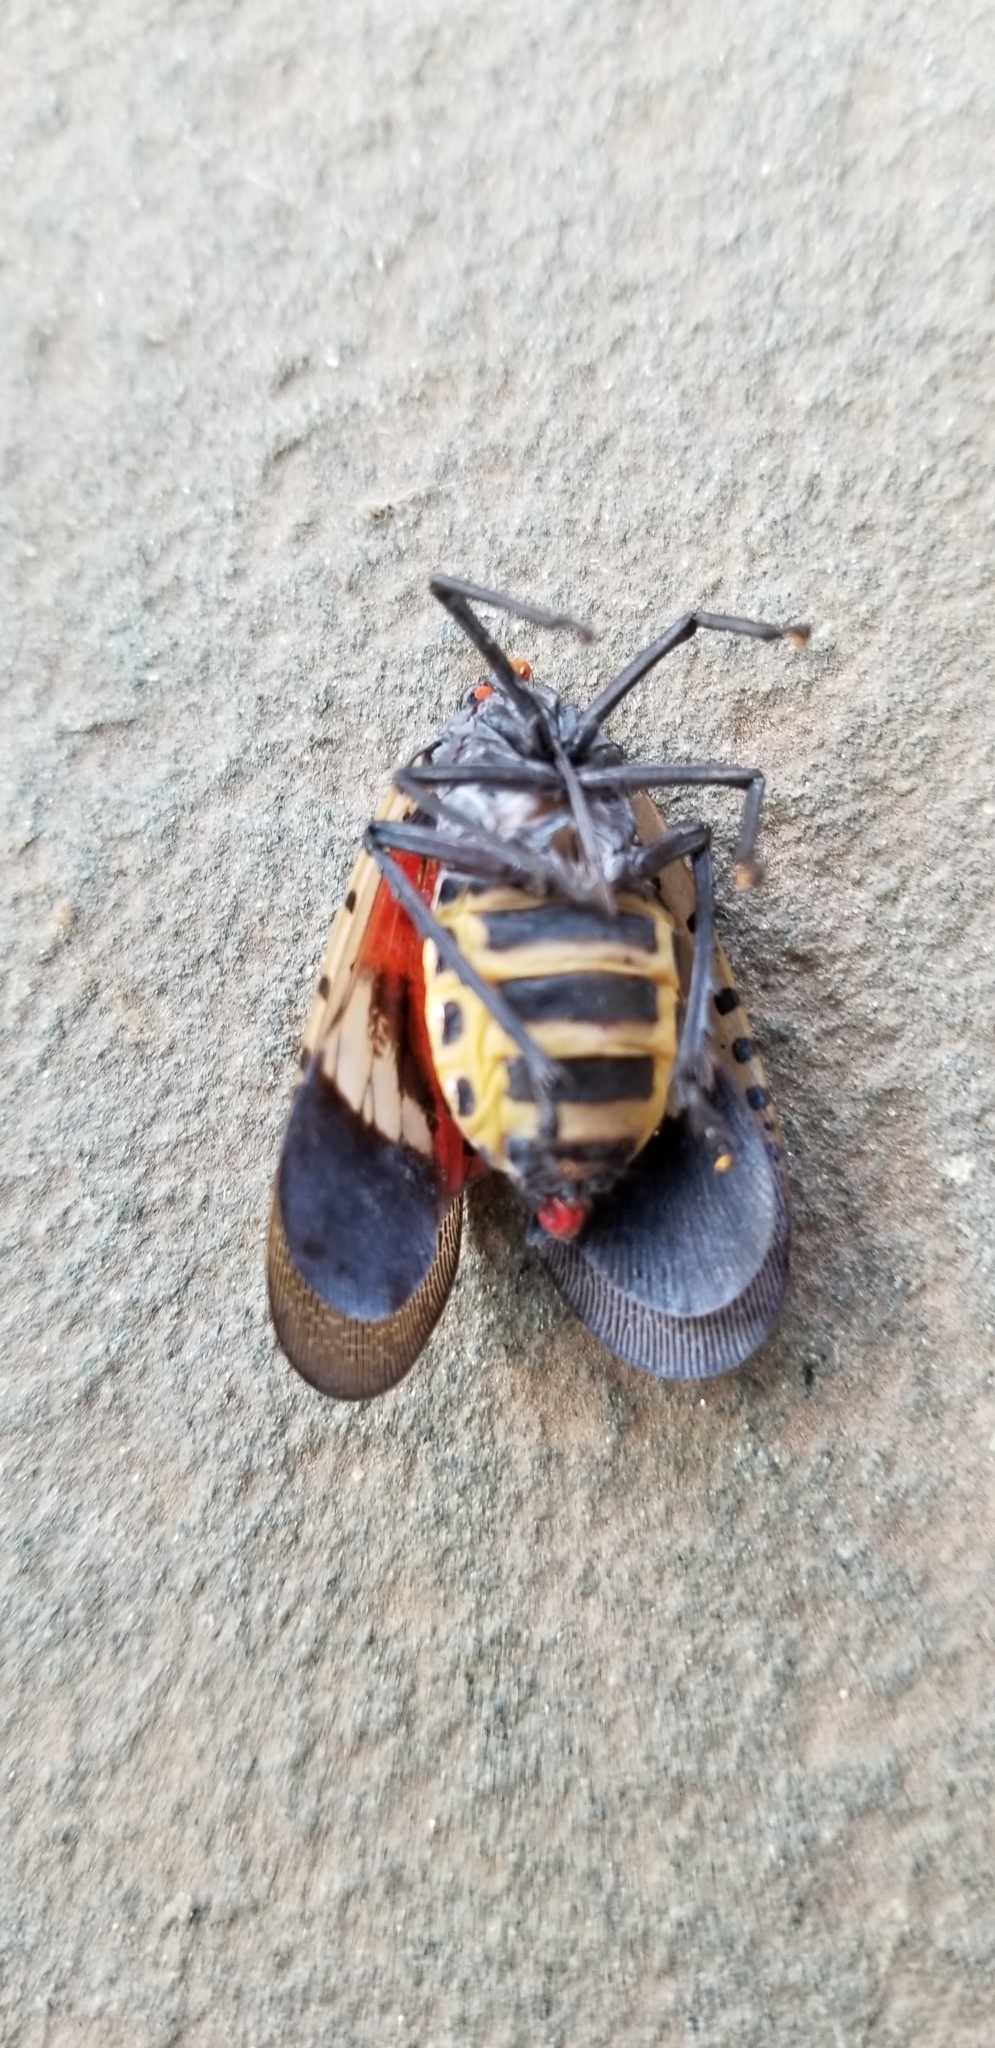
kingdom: Animalia
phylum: Arthropoda
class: Insecta
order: Hemiptera
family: Fulgoridae
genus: Lycorma
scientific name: Lycorma delicatula
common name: Spotted lanternfly
